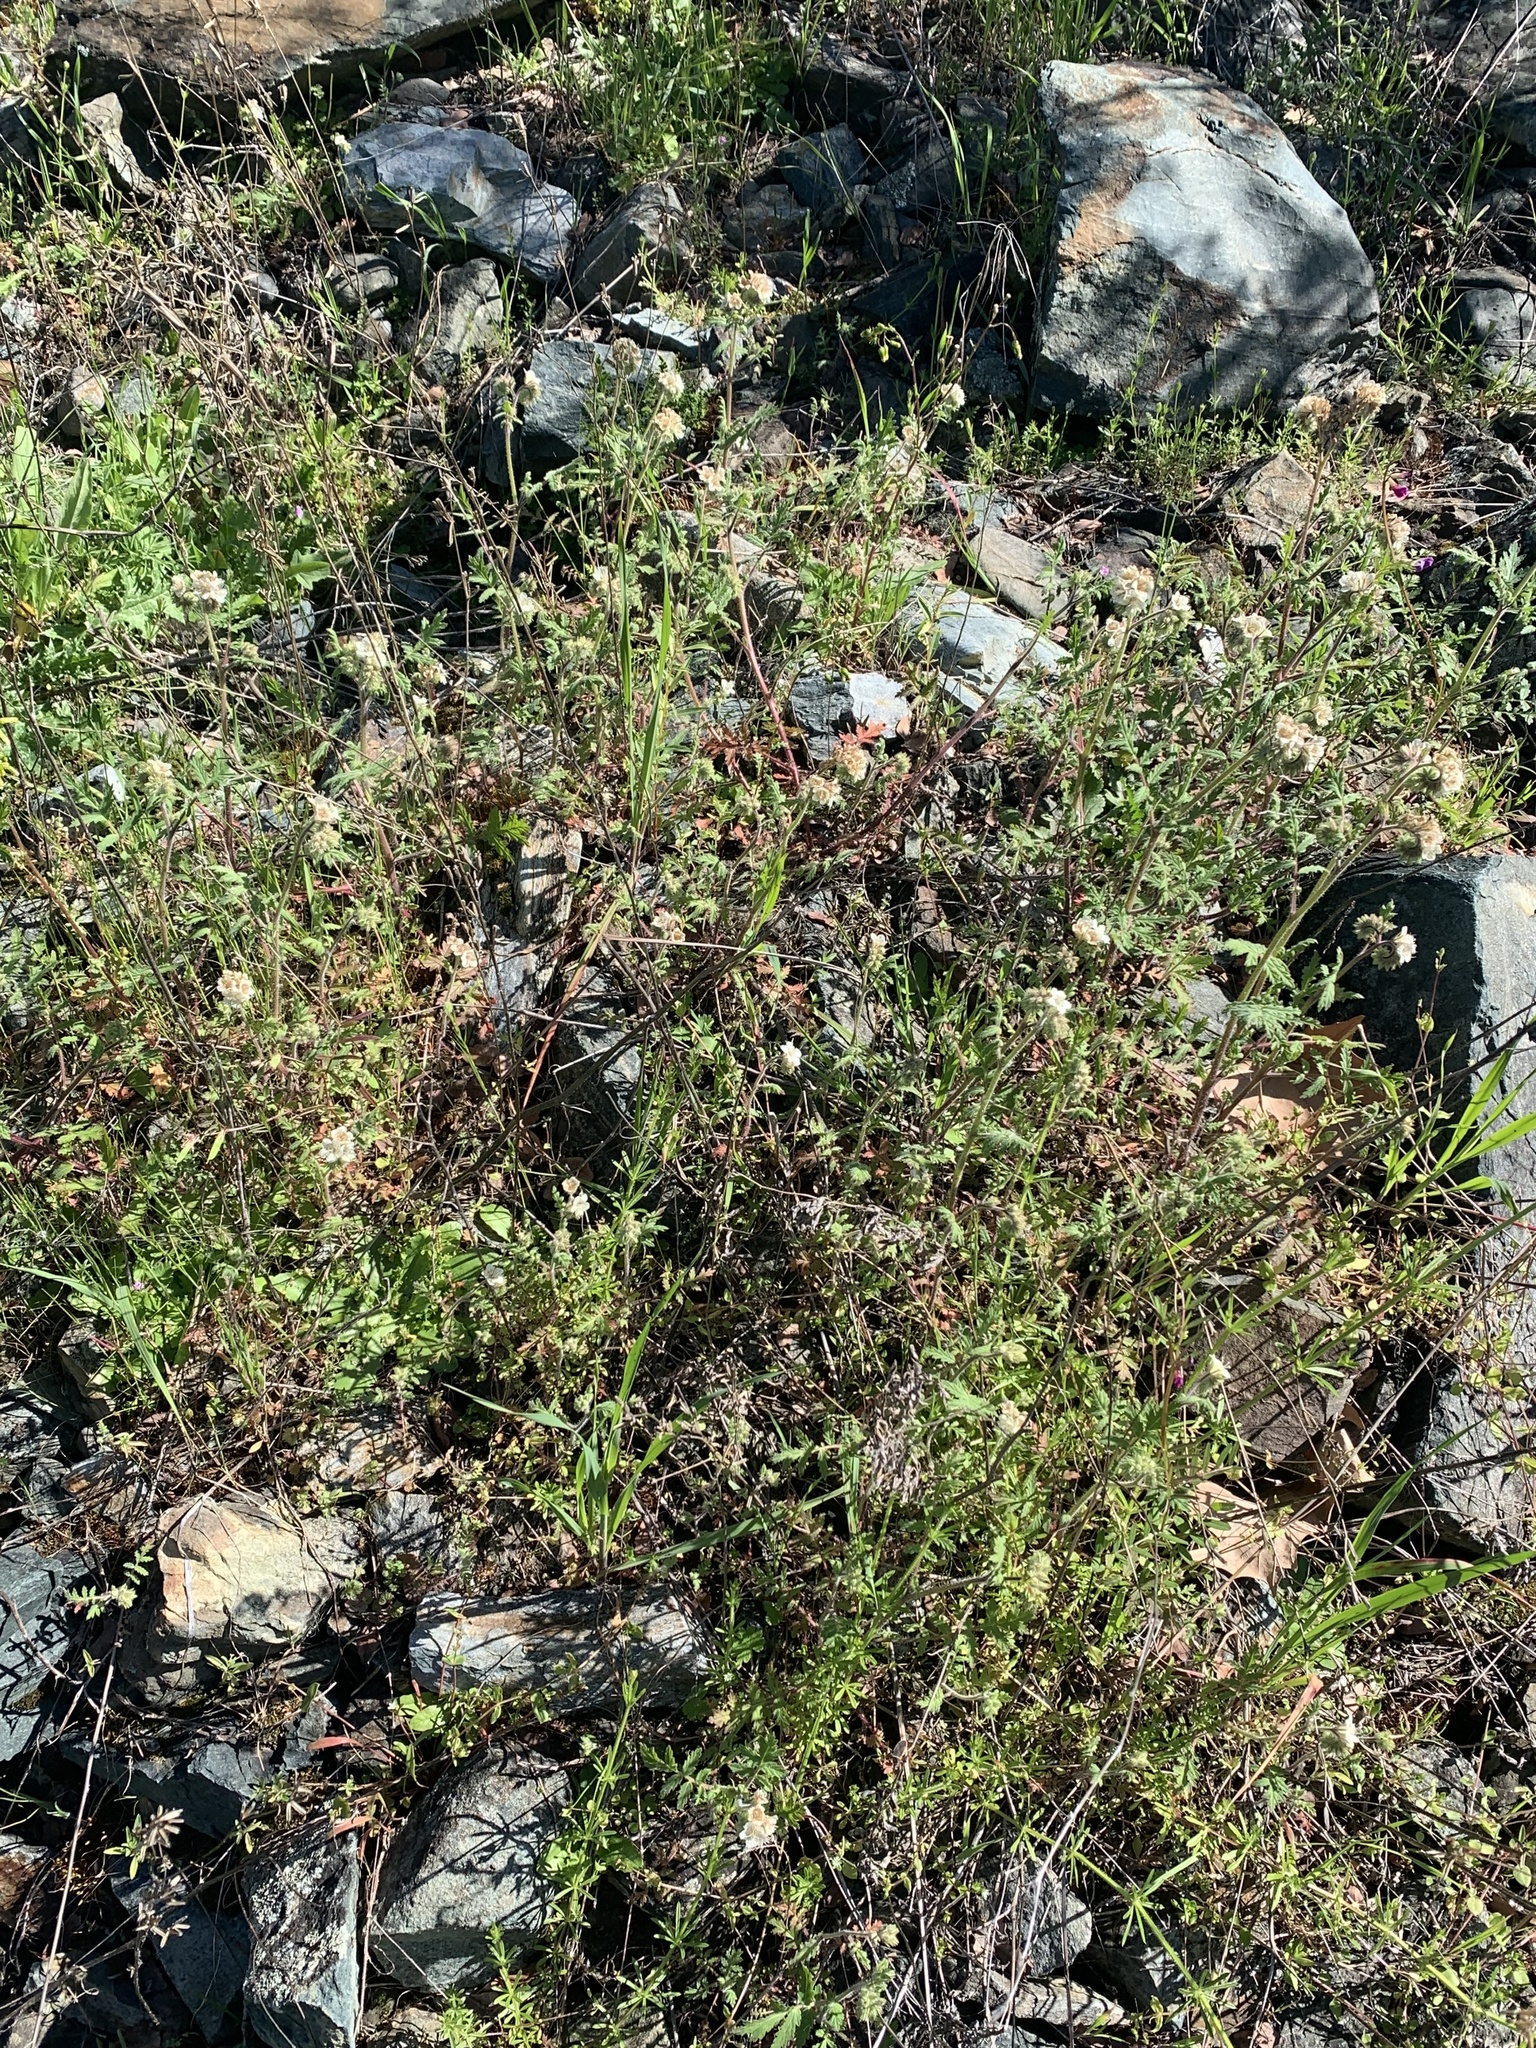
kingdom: Plantae
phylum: Tracheophyta
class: Magnoliopsida
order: Boraginales
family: Hydrophyllaceae
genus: Phacelia
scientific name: Phacelia cicutaria
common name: Caterpillar phacelia
